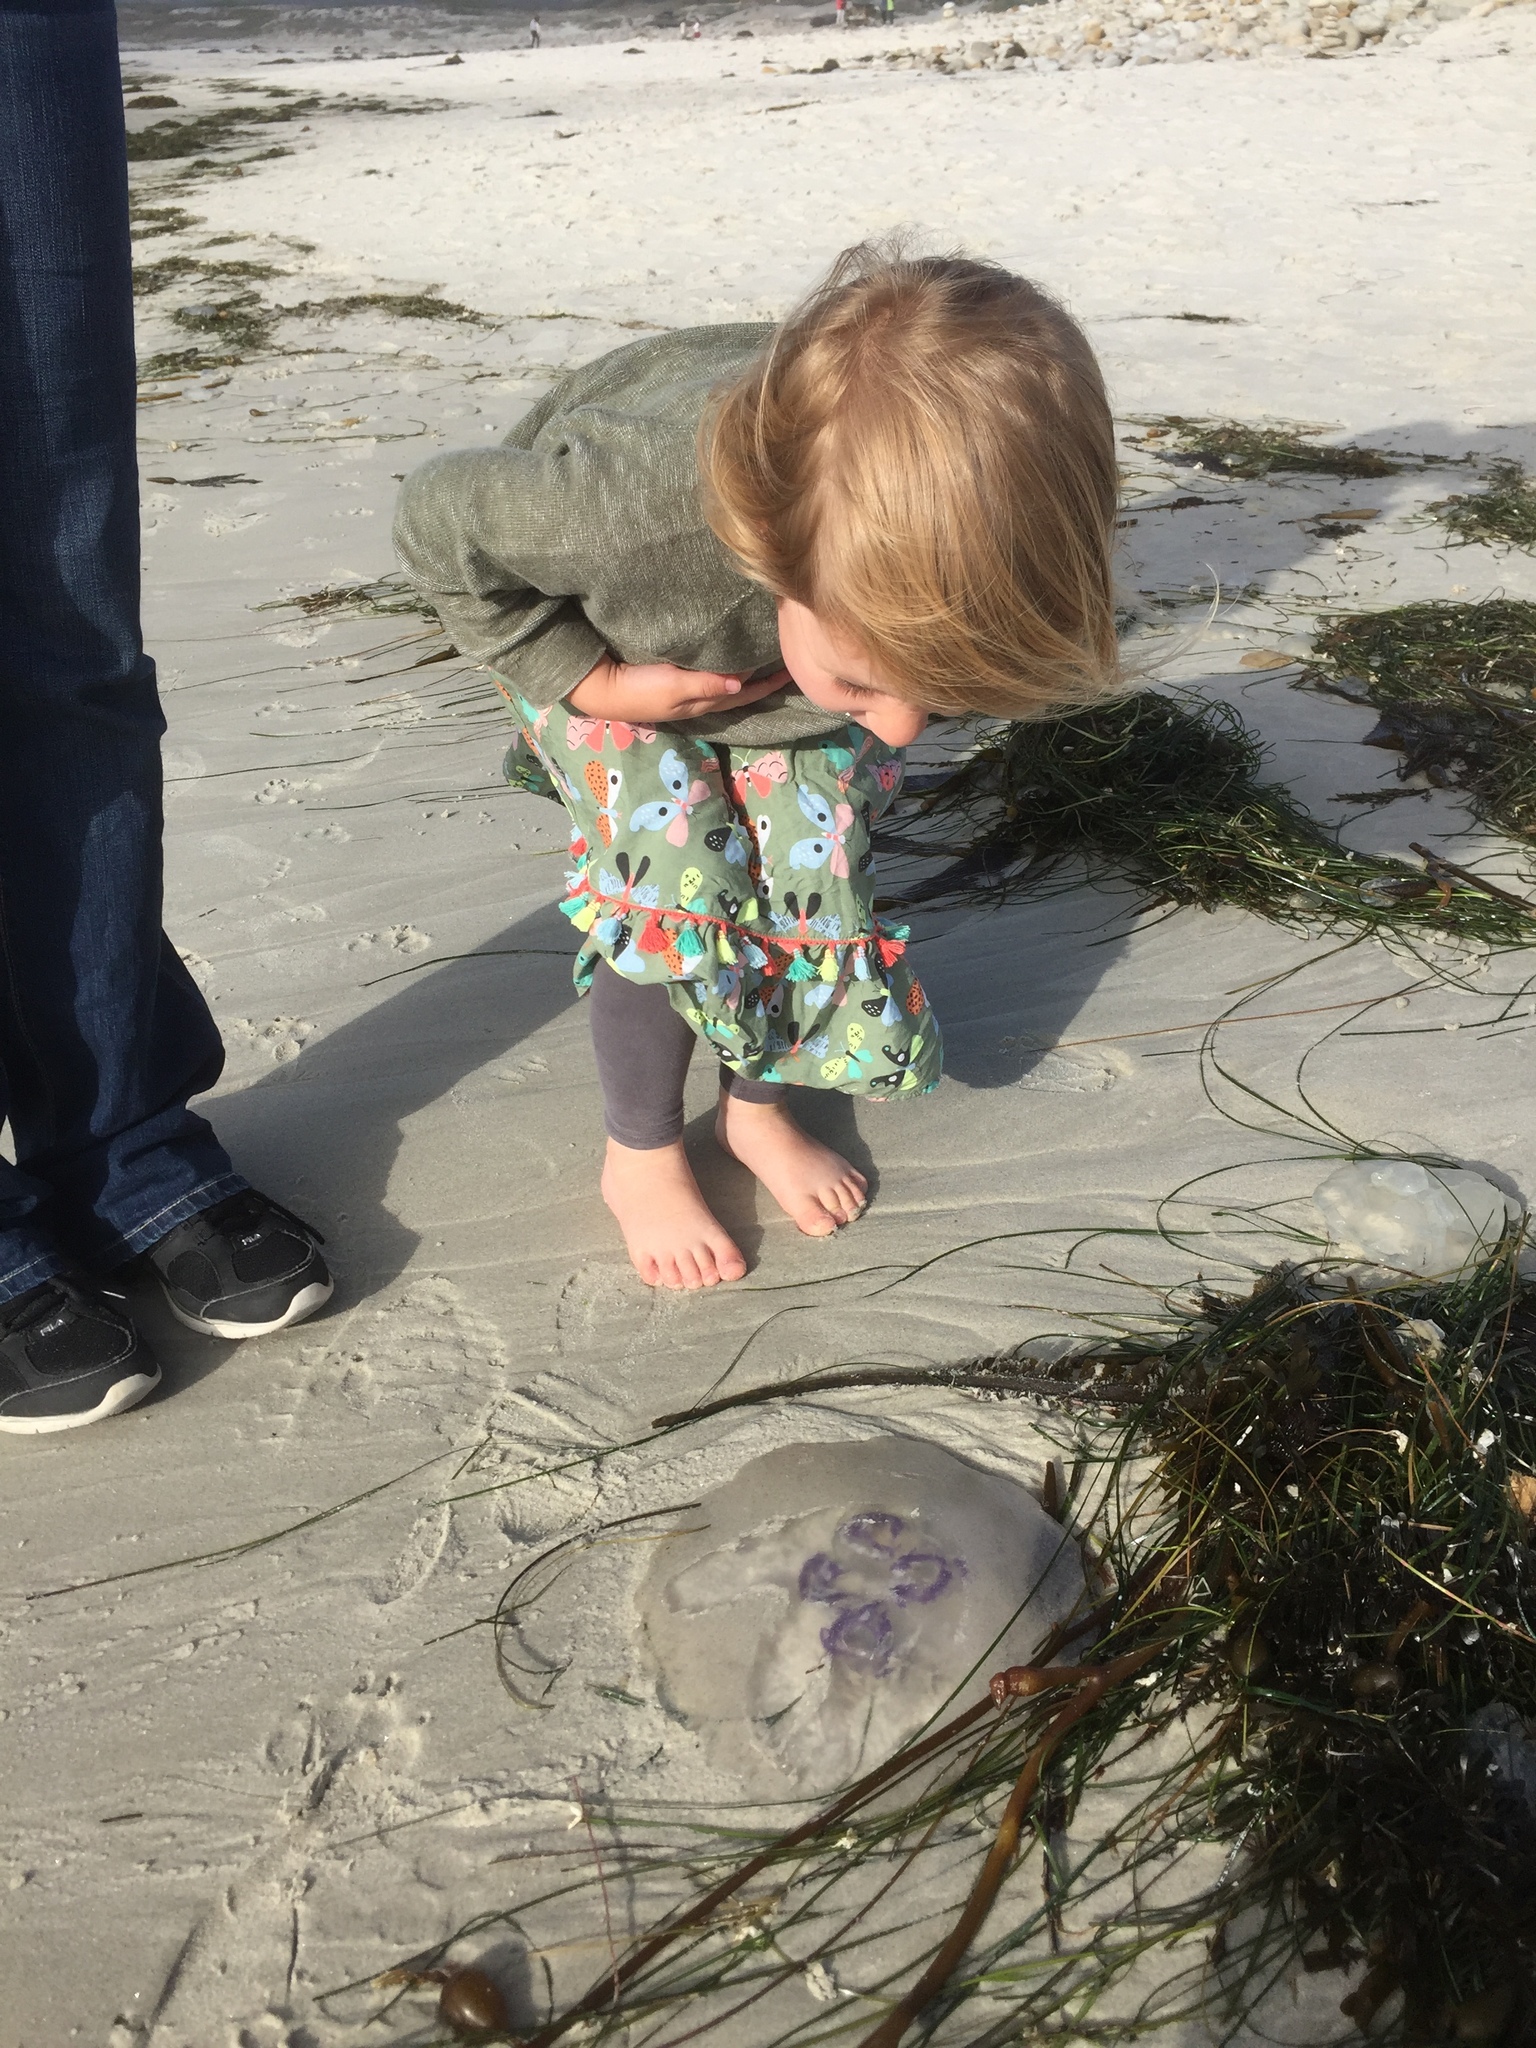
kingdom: Animalia
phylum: Cnidaria
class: Scyphozoa
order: Semaeostomeae
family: Ulmaridae
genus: Aurelia
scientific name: Aurelia labiata
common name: Pacific moon jelly
